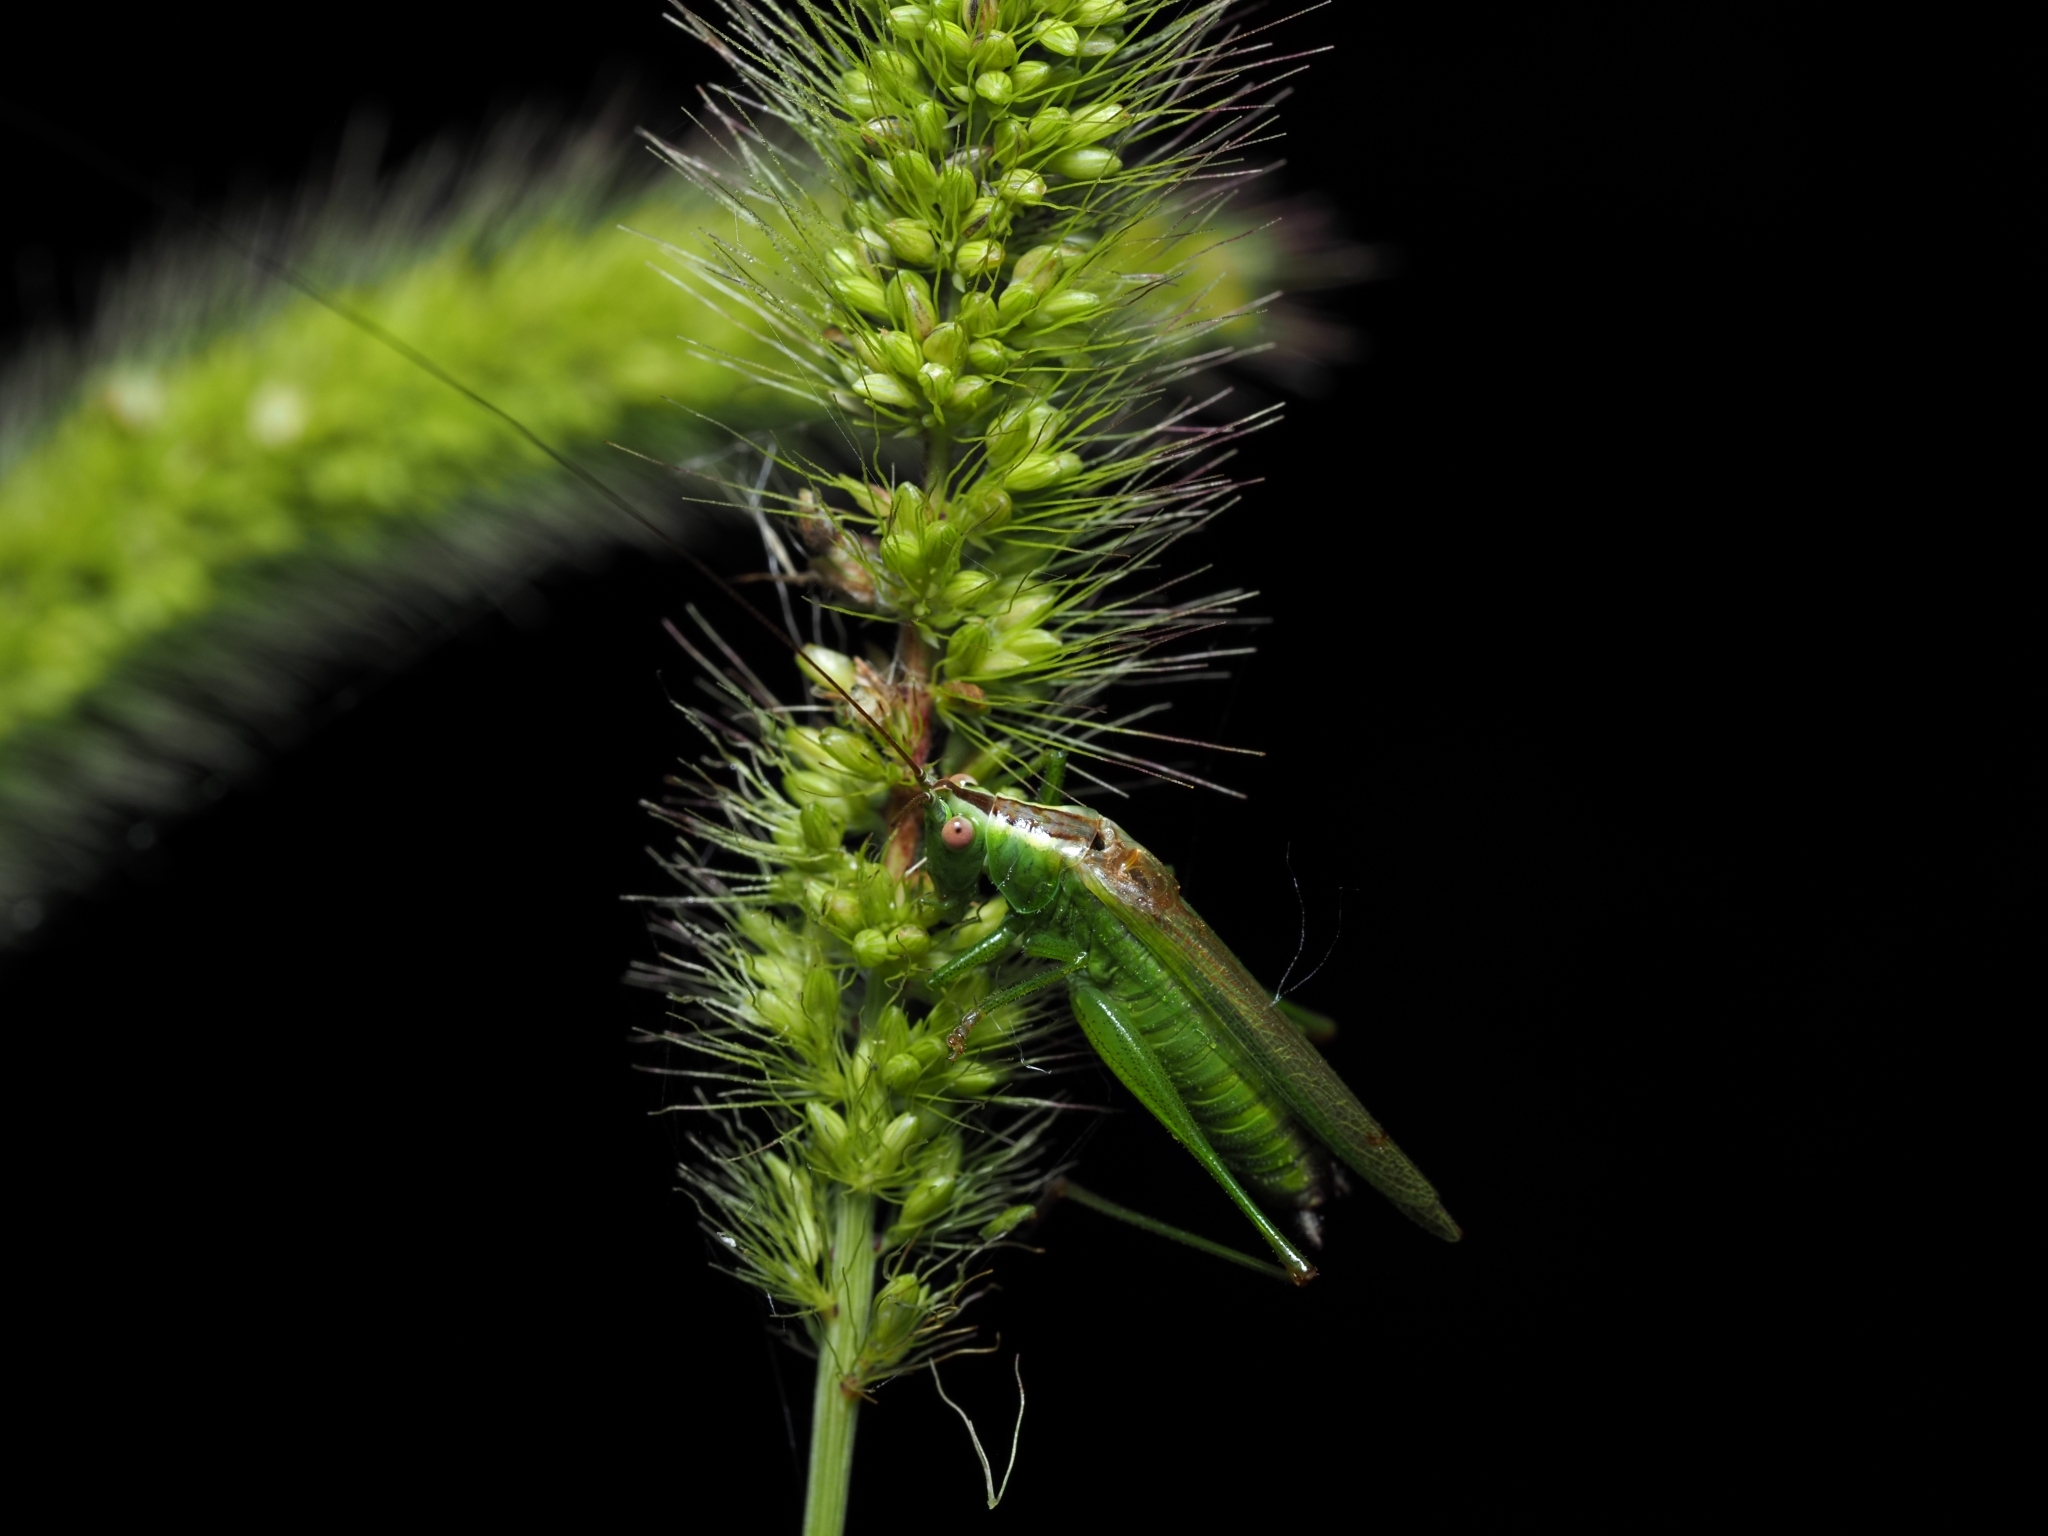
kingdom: Animalia
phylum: Arthropoda
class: Insecta
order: Orthoptera
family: Tettigoniidae
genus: Conocephalus
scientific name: Conocephalus fuscus
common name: Long-winged conehead
